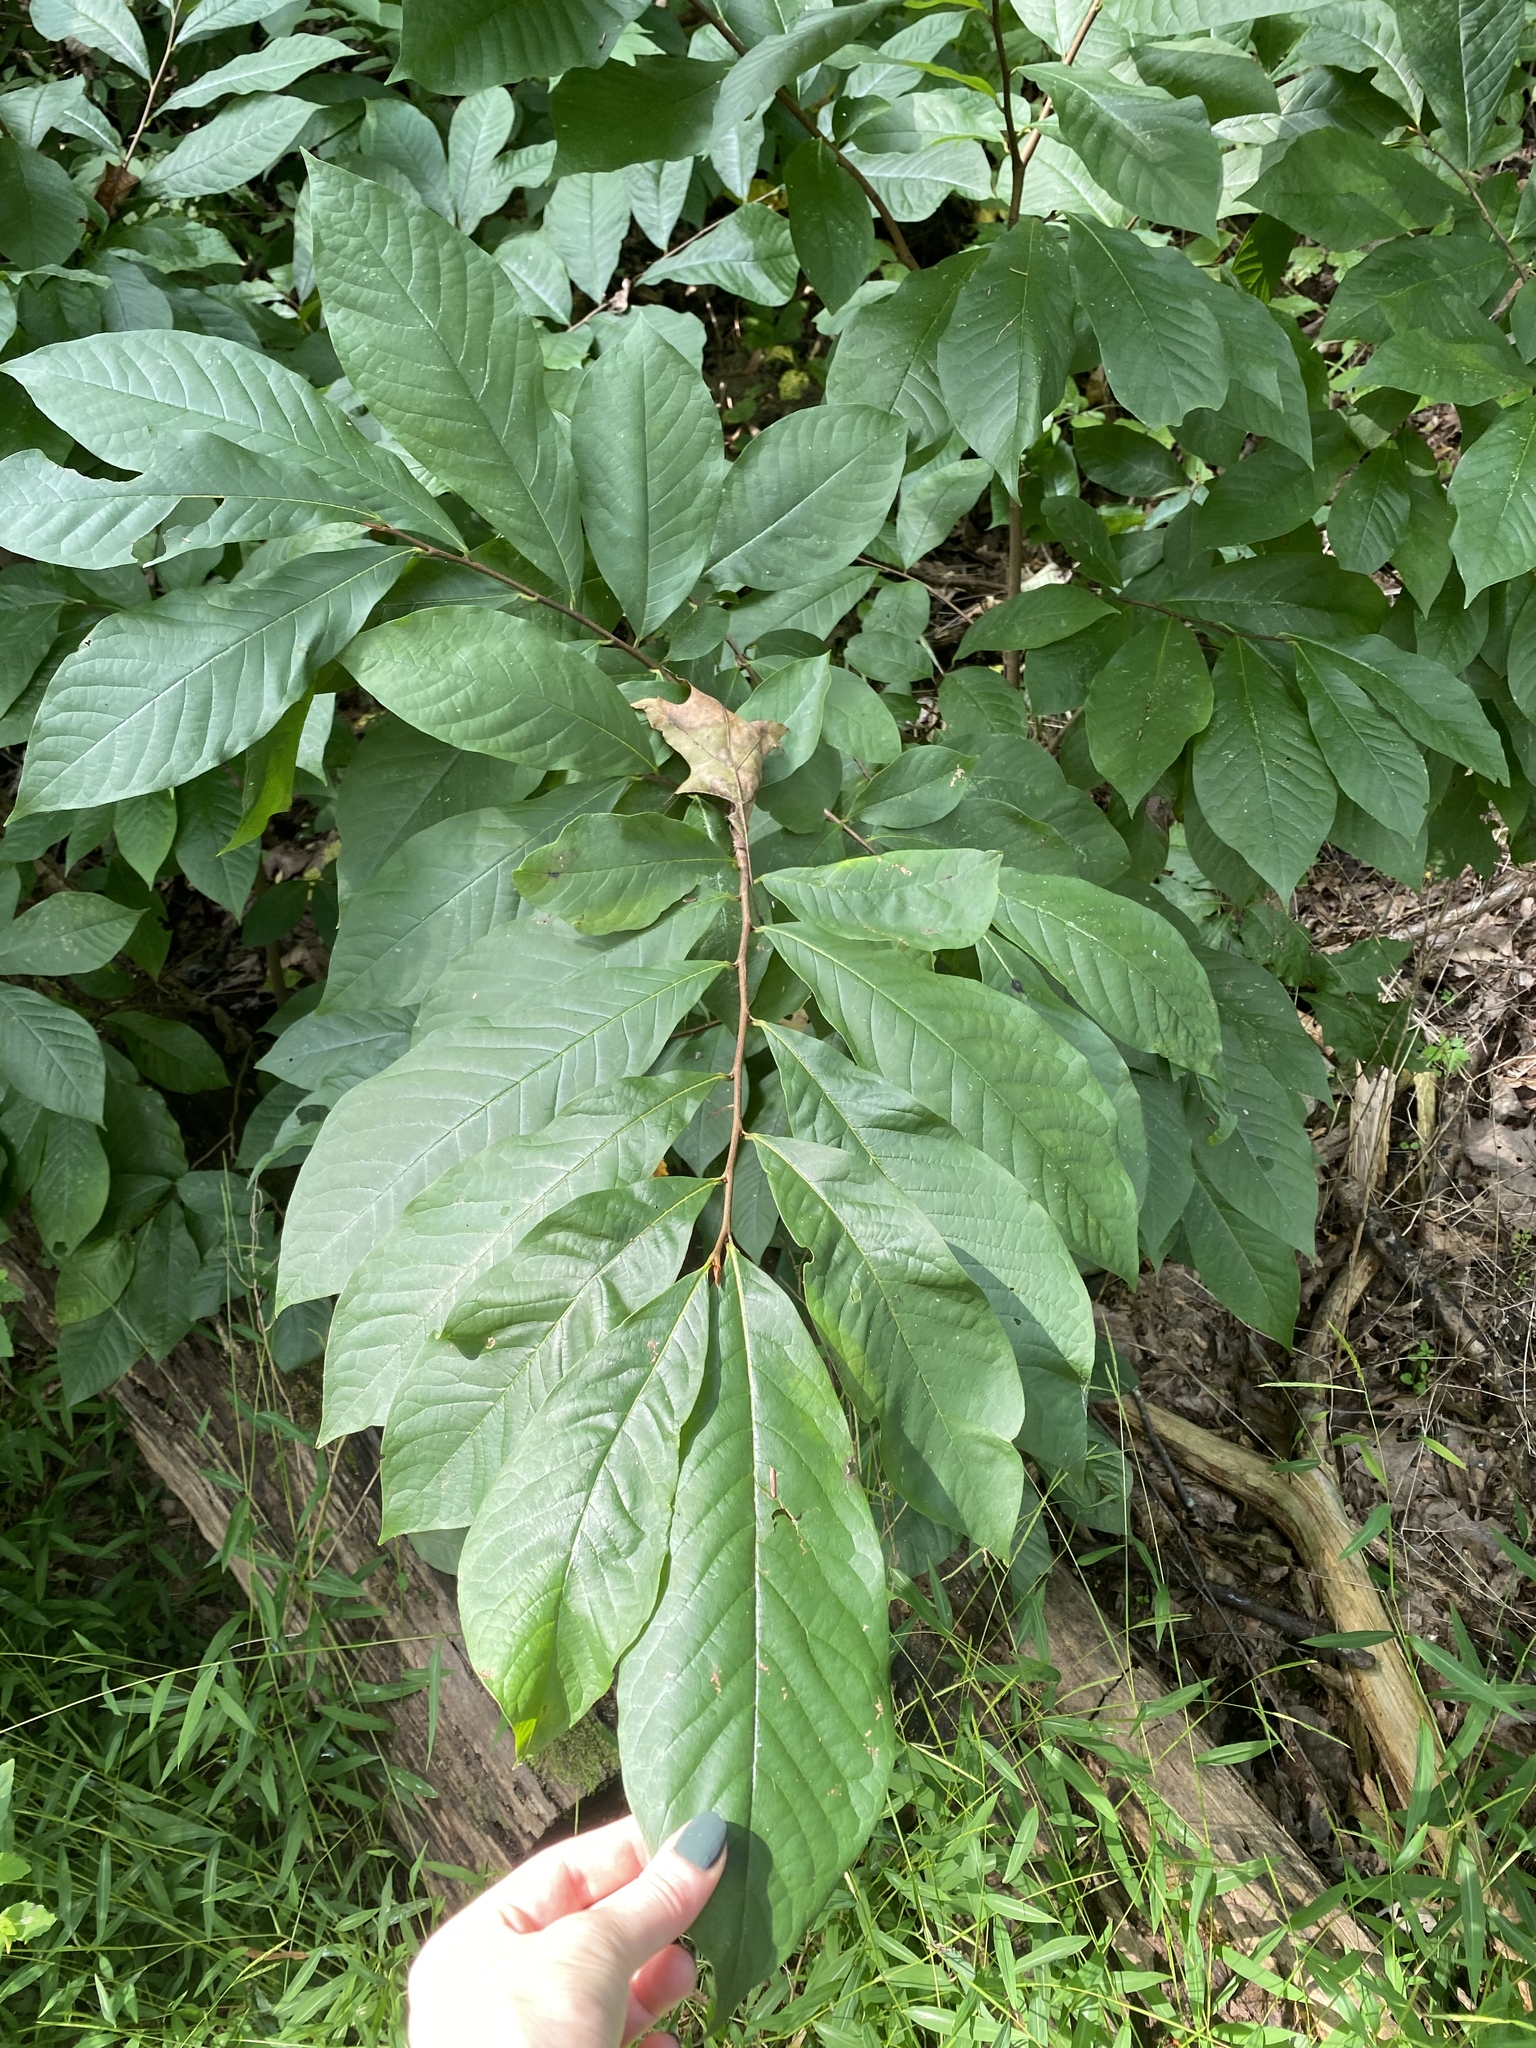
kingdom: Plantae
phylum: Tracheophyta
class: Magnoliopsida
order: Magnoliales
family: Annonaceae
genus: Asimina
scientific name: Asimina triloba
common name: Dog-banana
